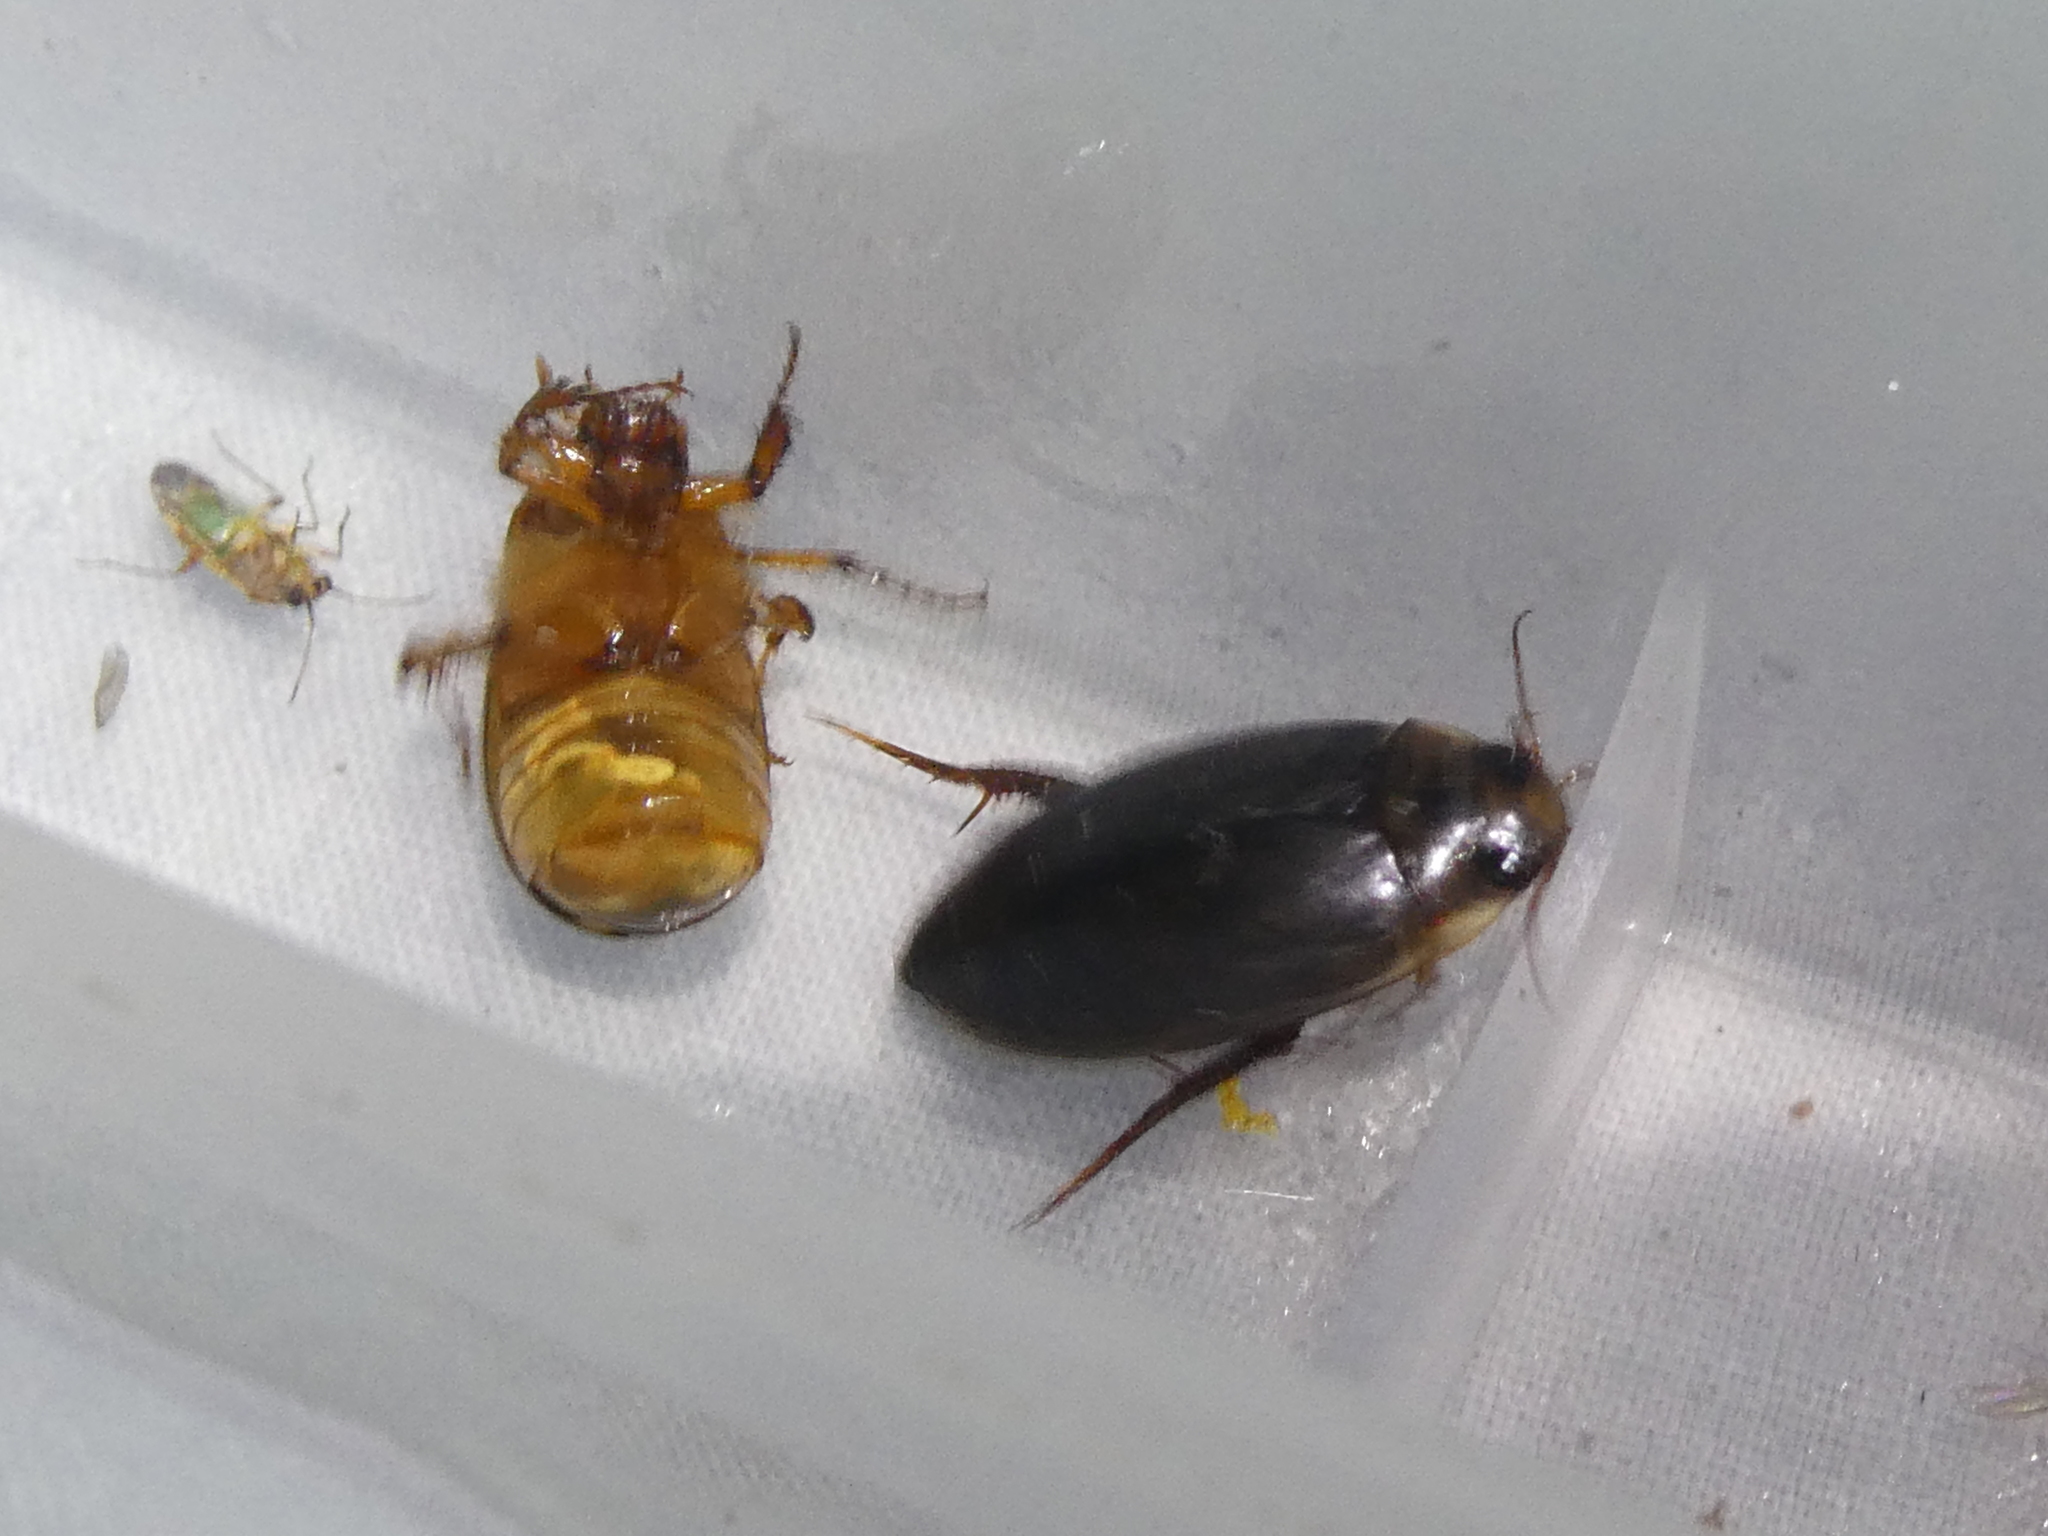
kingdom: Animalia
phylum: Arthropoda
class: Insecta
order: Coleoptera
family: Dytiscidae
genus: Rhantus
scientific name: Rhantus suturalis
